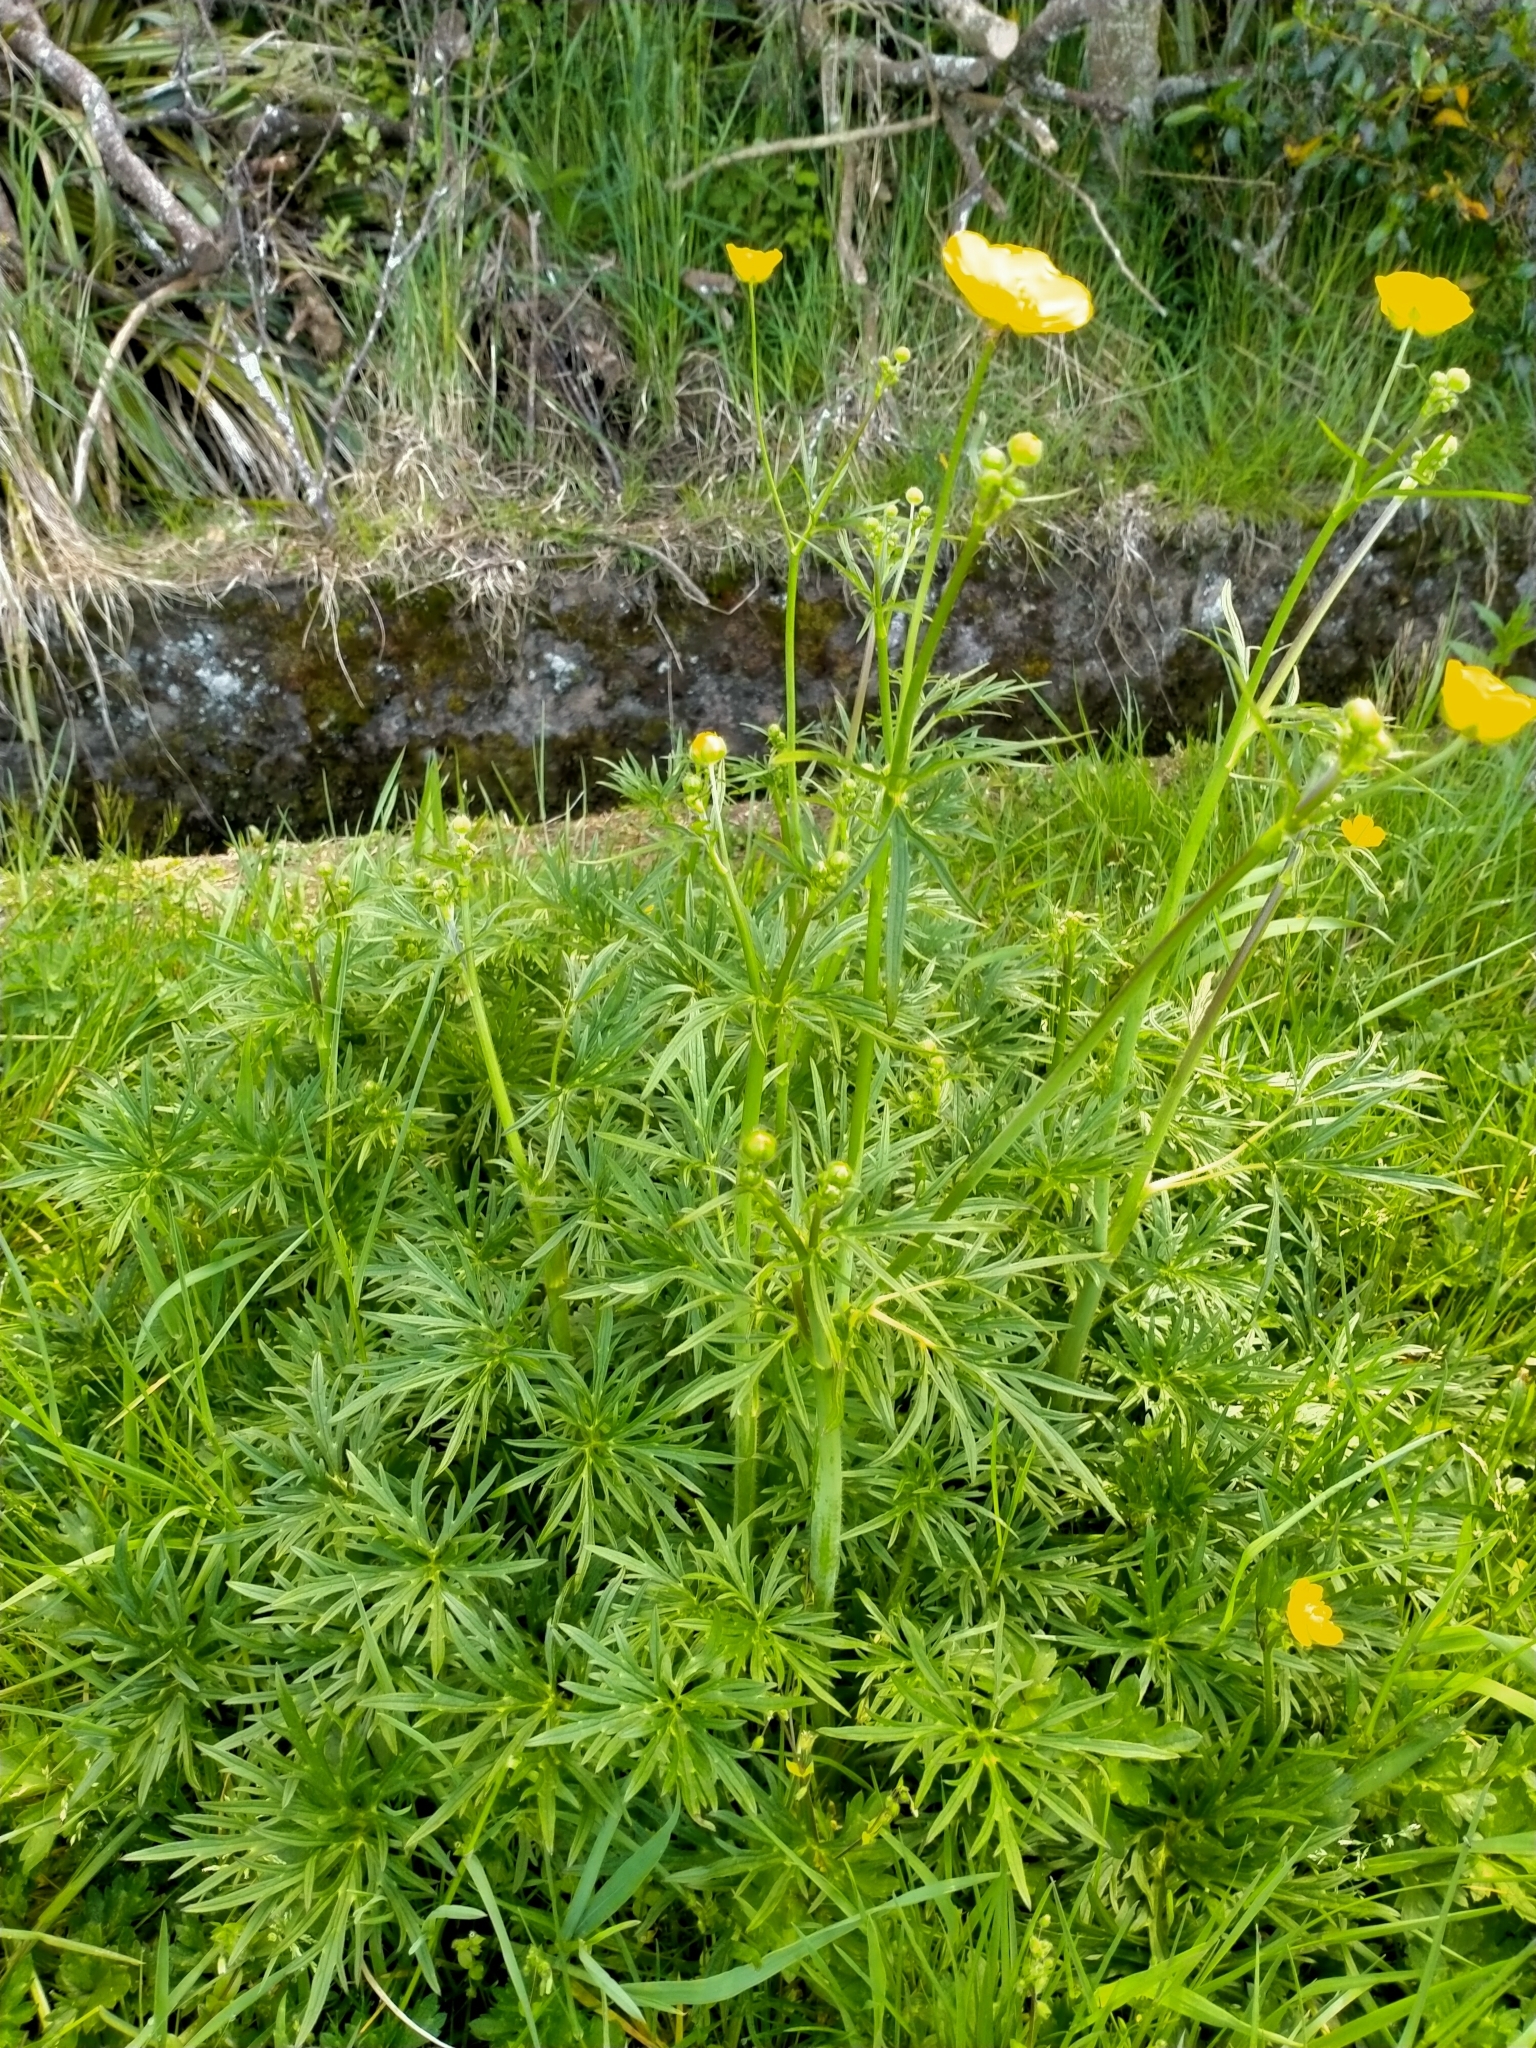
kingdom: Plantae
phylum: Tracheophyta
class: Magnoliopsida
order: Ranunculales
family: Ranunculaceae
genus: Ranunculus
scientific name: Ranunculus acris
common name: Meadow buttercup
